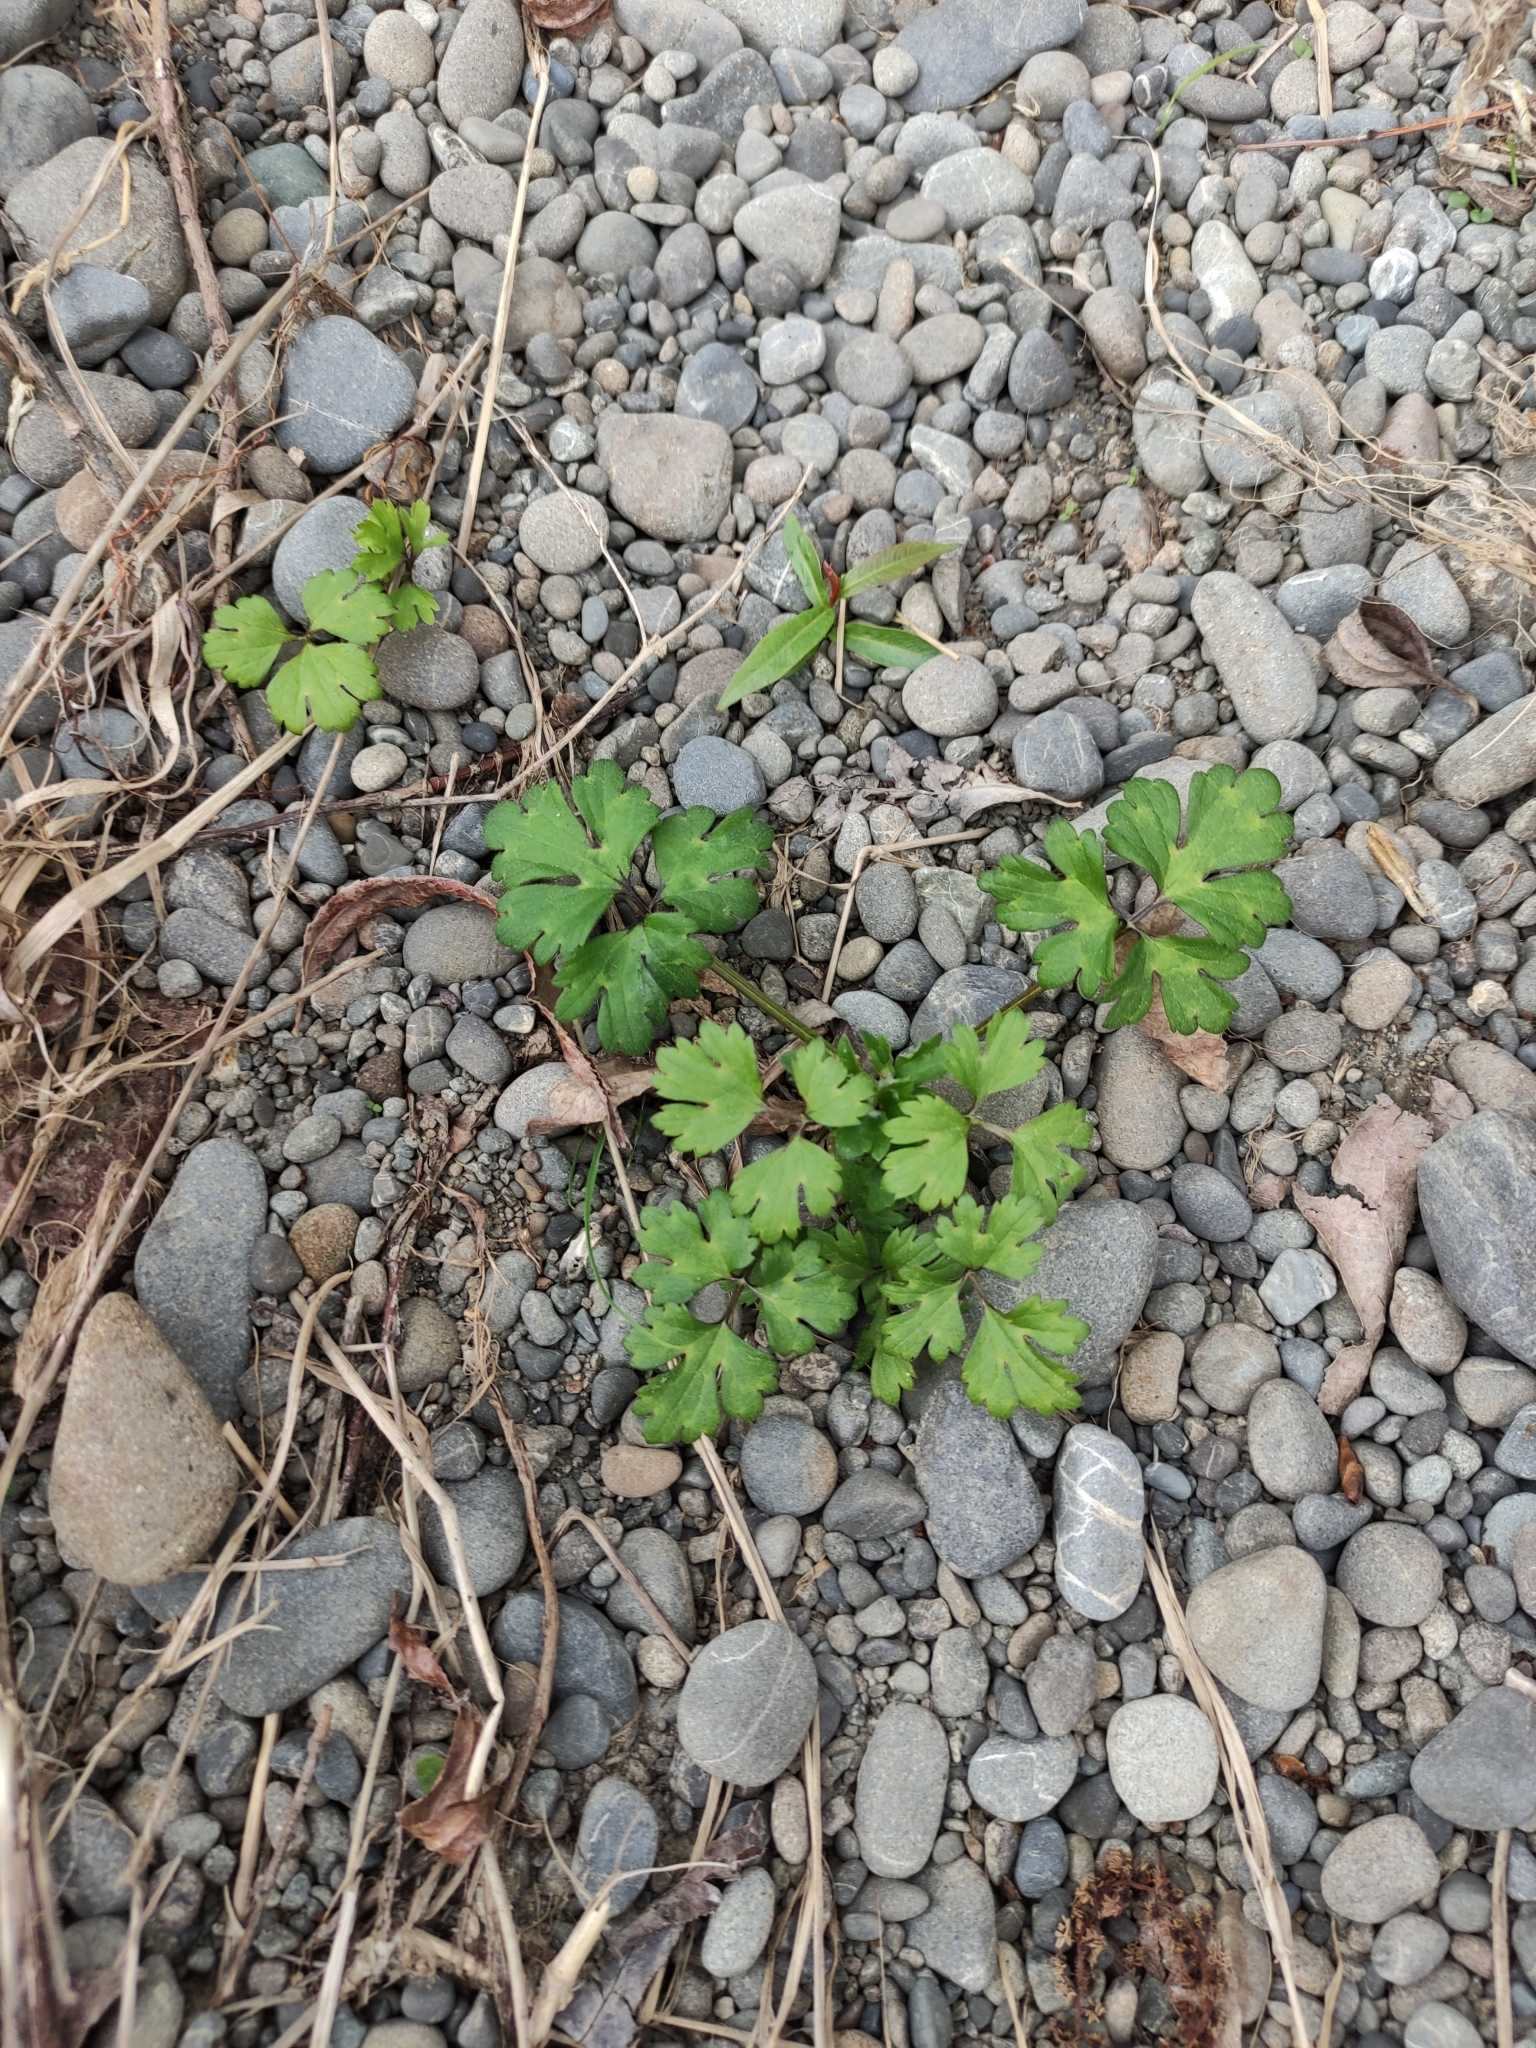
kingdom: Plantae
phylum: Tracheophyta
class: Magnoliopsida
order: Ranunculales
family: Ranunculaceae
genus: Ranunculus
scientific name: Ranunculus repens
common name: Creeping buttercup
